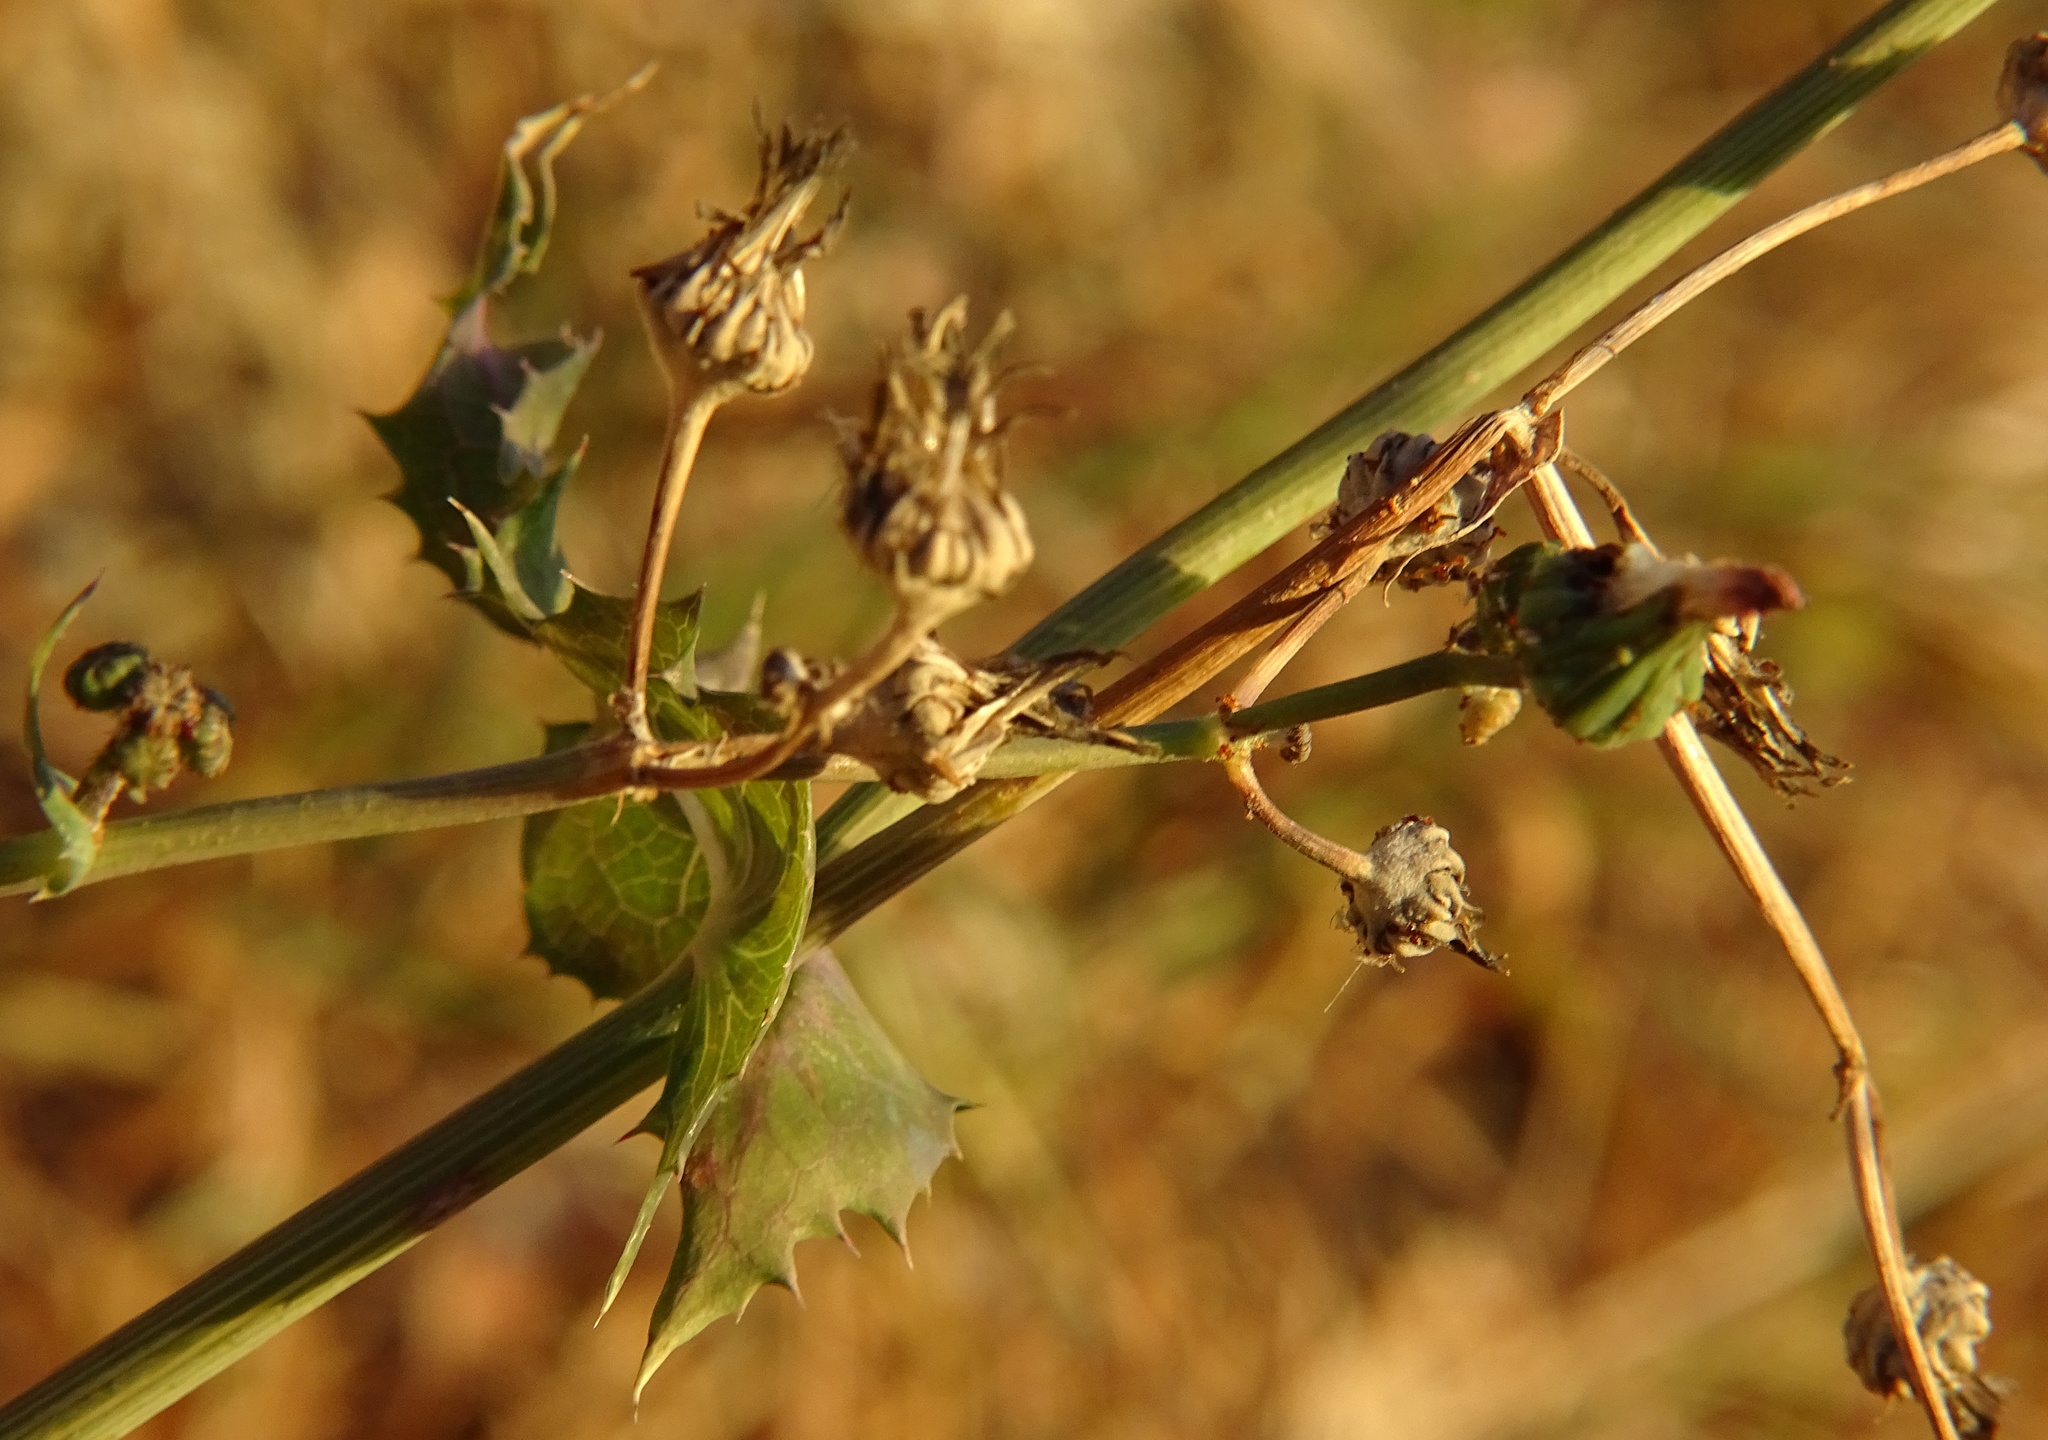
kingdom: Plantae
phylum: Tracheophyta
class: Magnoliopsida
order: Asterales
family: Asteraceae
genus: Sonchus
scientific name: Sonchus oleraceus
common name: Common sowthistle
